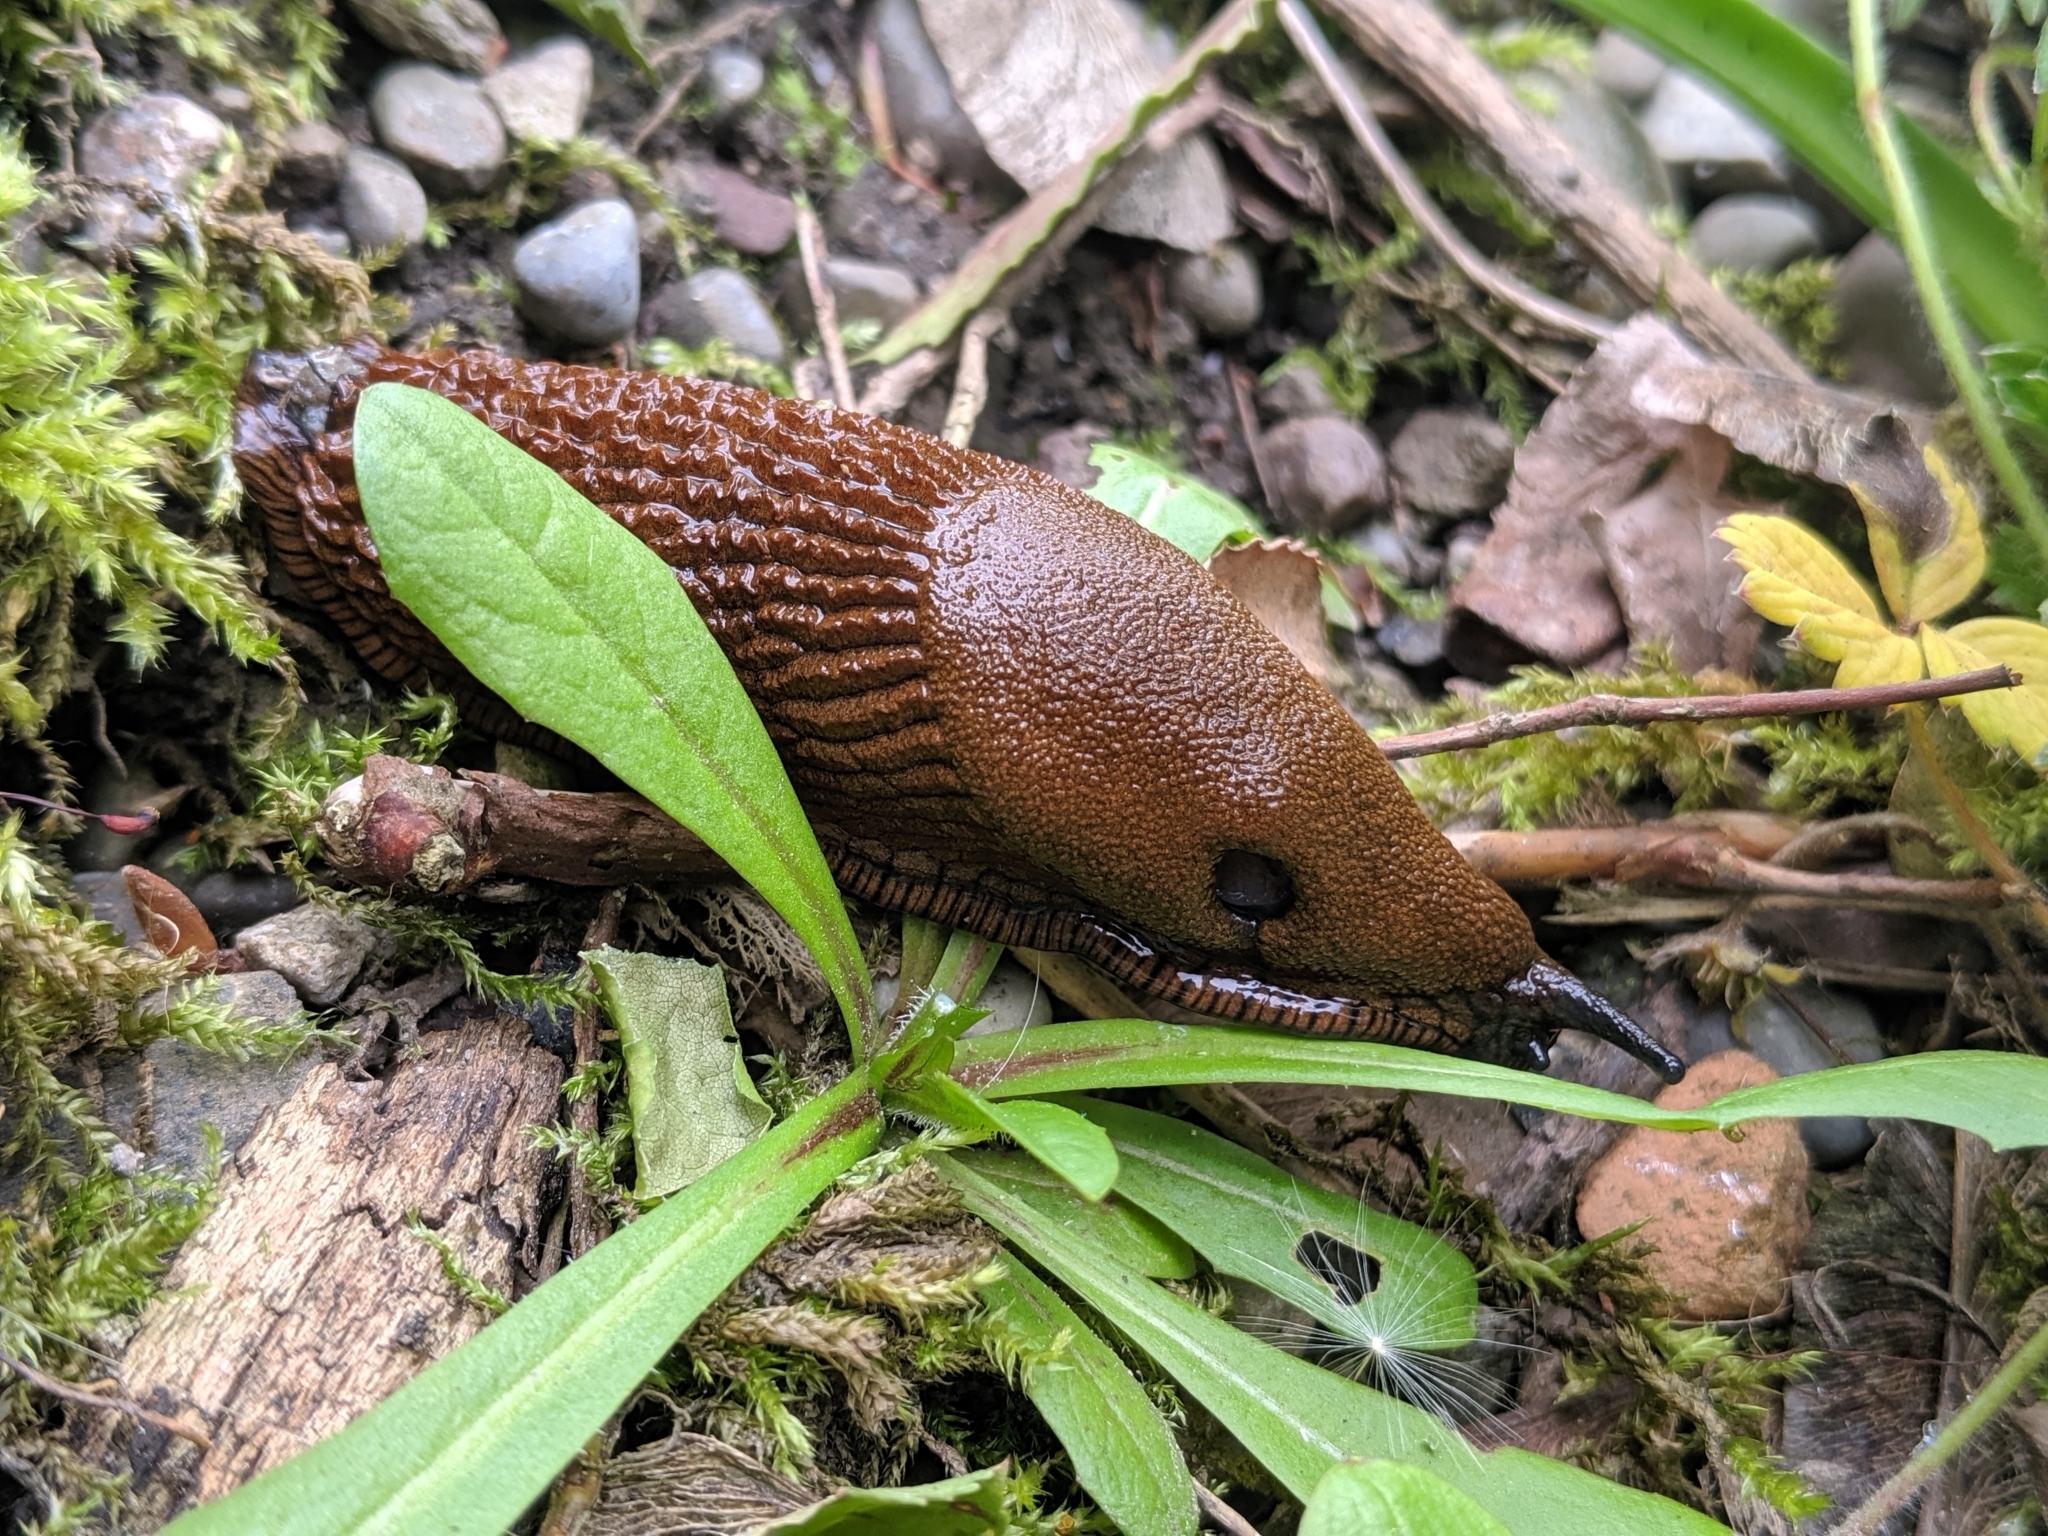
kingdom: Animalia
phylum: Mollusca
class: Gastropoda
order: Stylommatophora
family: Arionidae
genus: Arion
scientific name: Arion
